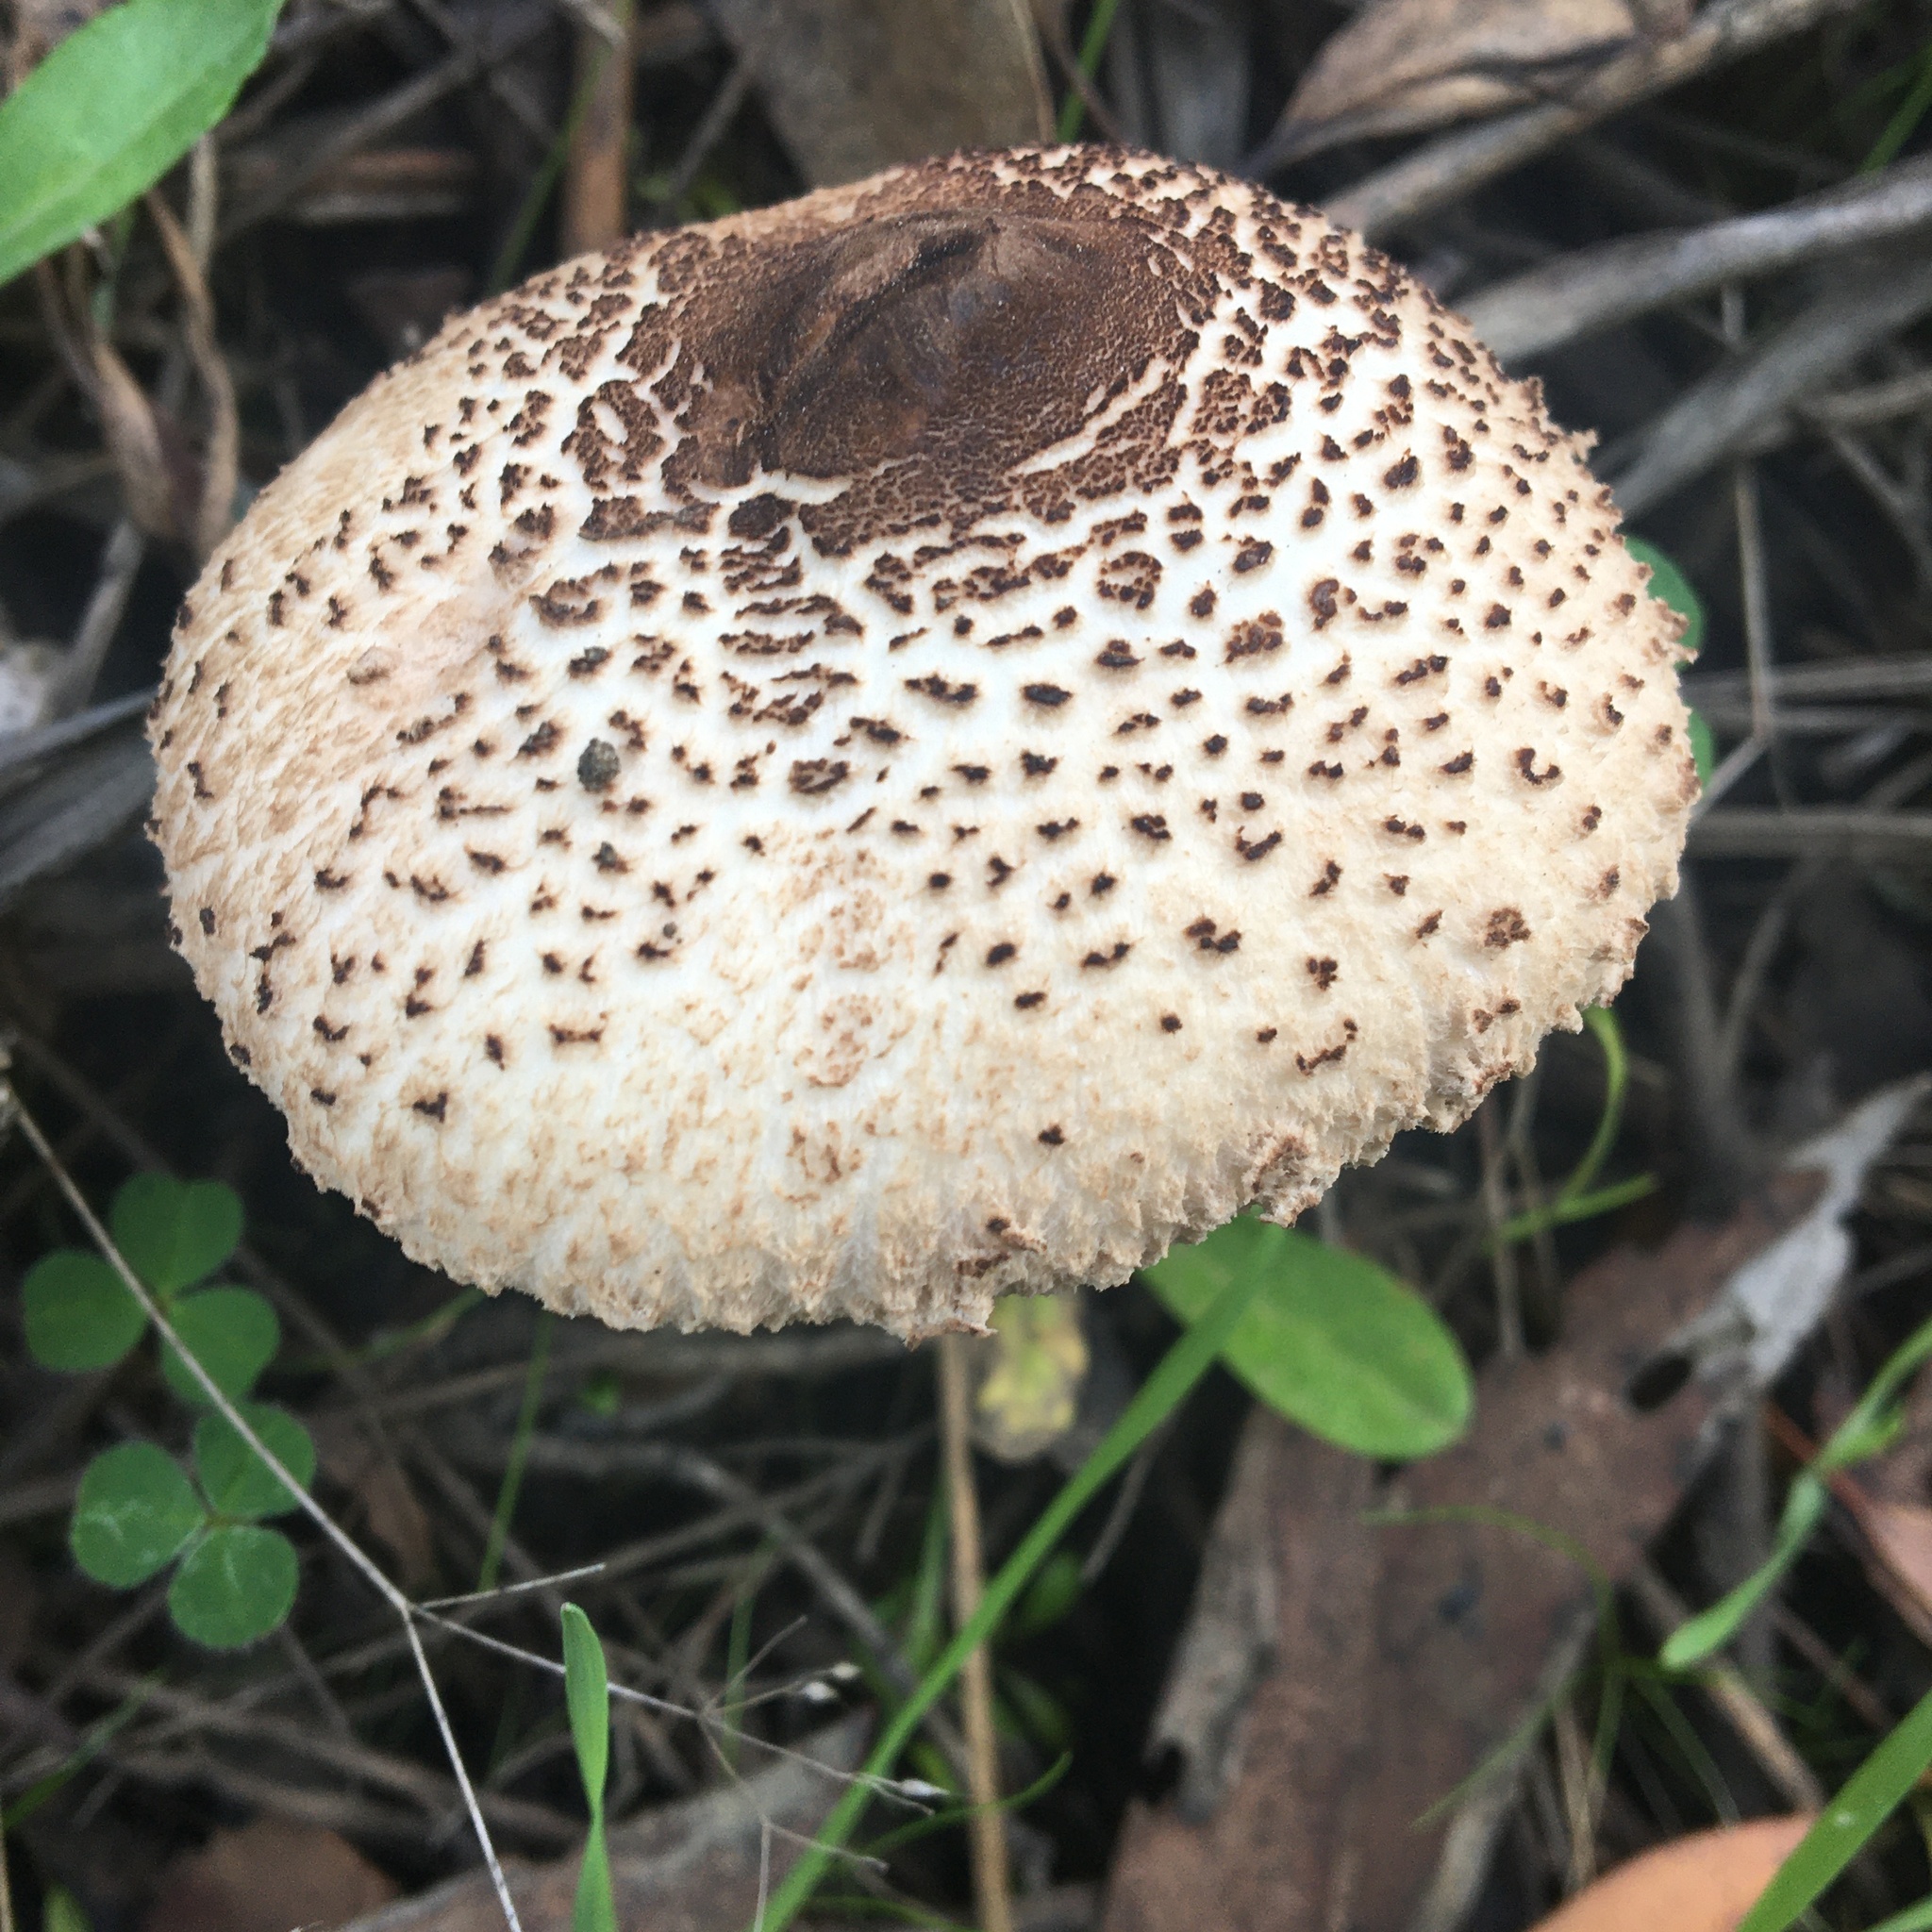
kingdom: Fungi
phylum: Basidiomycota
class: Agaricomycetes
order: Agaricales
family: Agaricaceae
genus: Macrolepiota
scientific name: Macrolepiota clelandii
